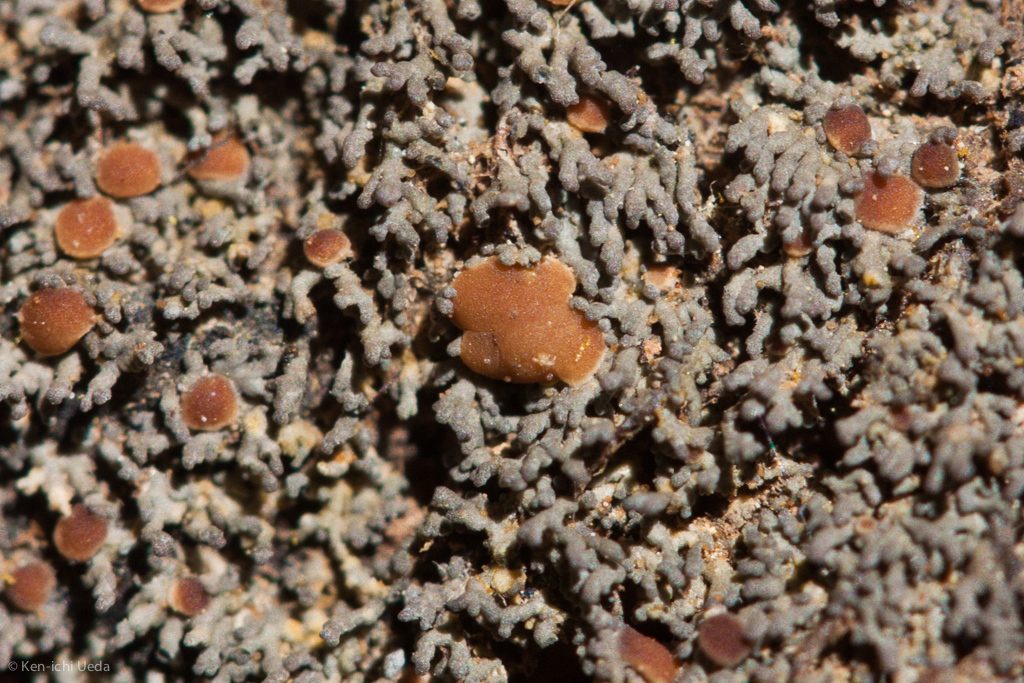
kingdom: Fungi
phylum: Ascomycota
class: Lecanoromycetes
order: Peltigerales
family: Pannariaceae
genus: Fuscopannaria
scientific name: Fuscopannaria coralloidea
